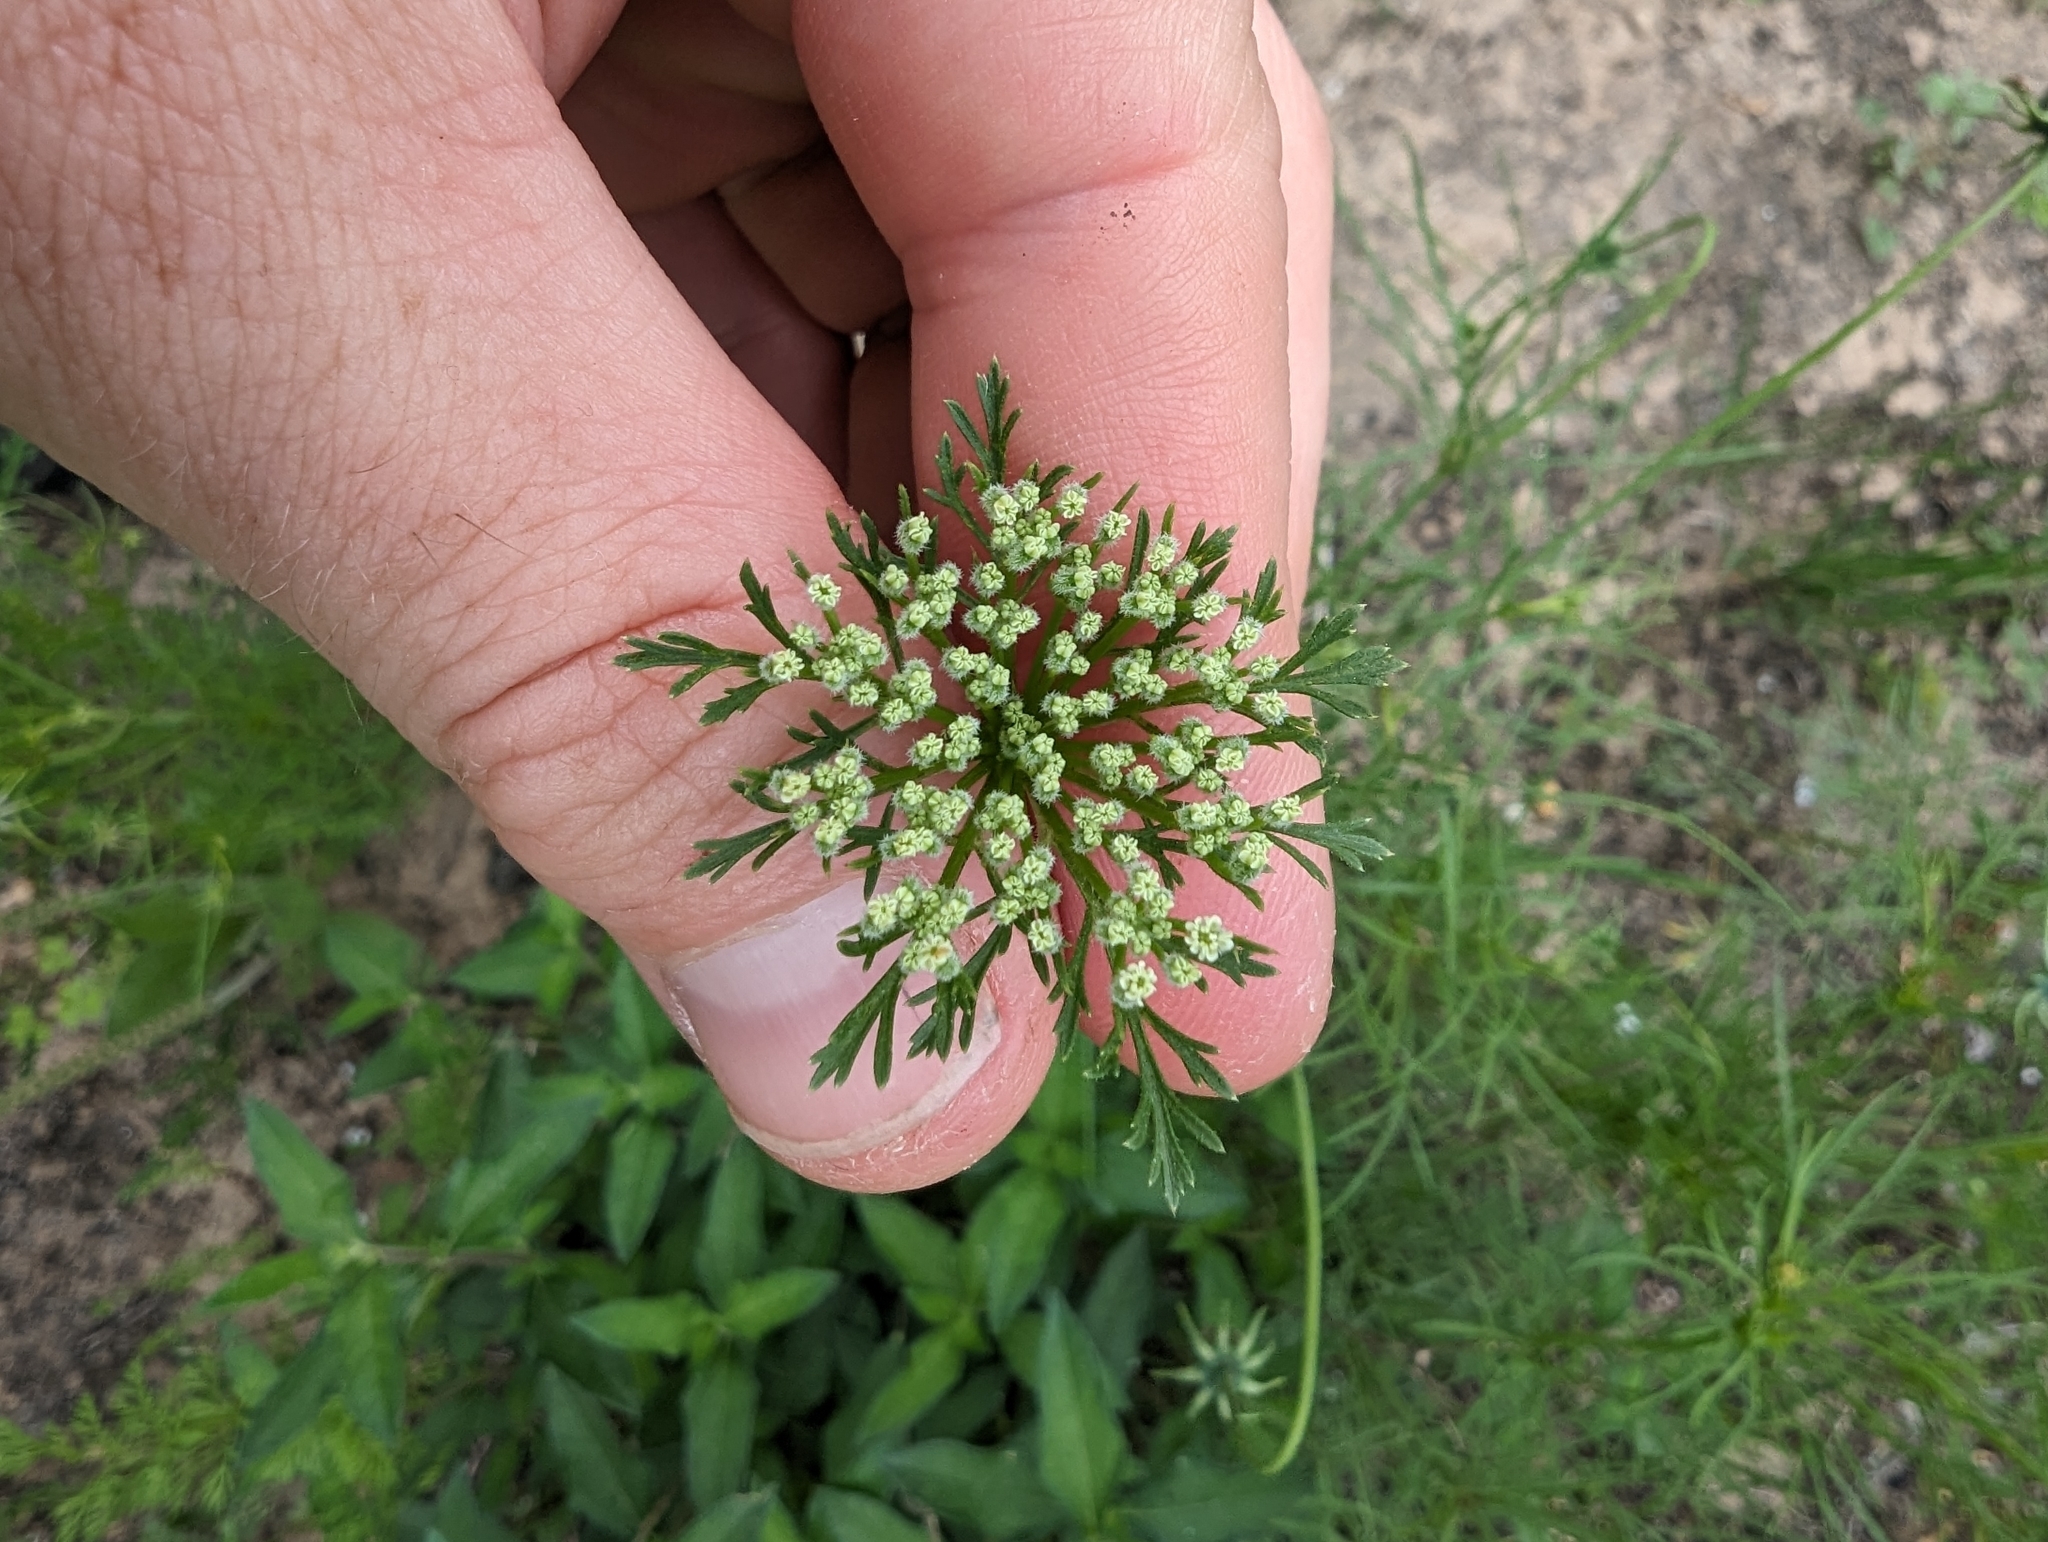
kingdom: Plantae
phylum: Tracheophyta
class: Magnoliopsida
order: Apiales
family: Apiaceae
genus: Daucus
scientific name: Daucus pusillus
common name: Southwest wild carrot
